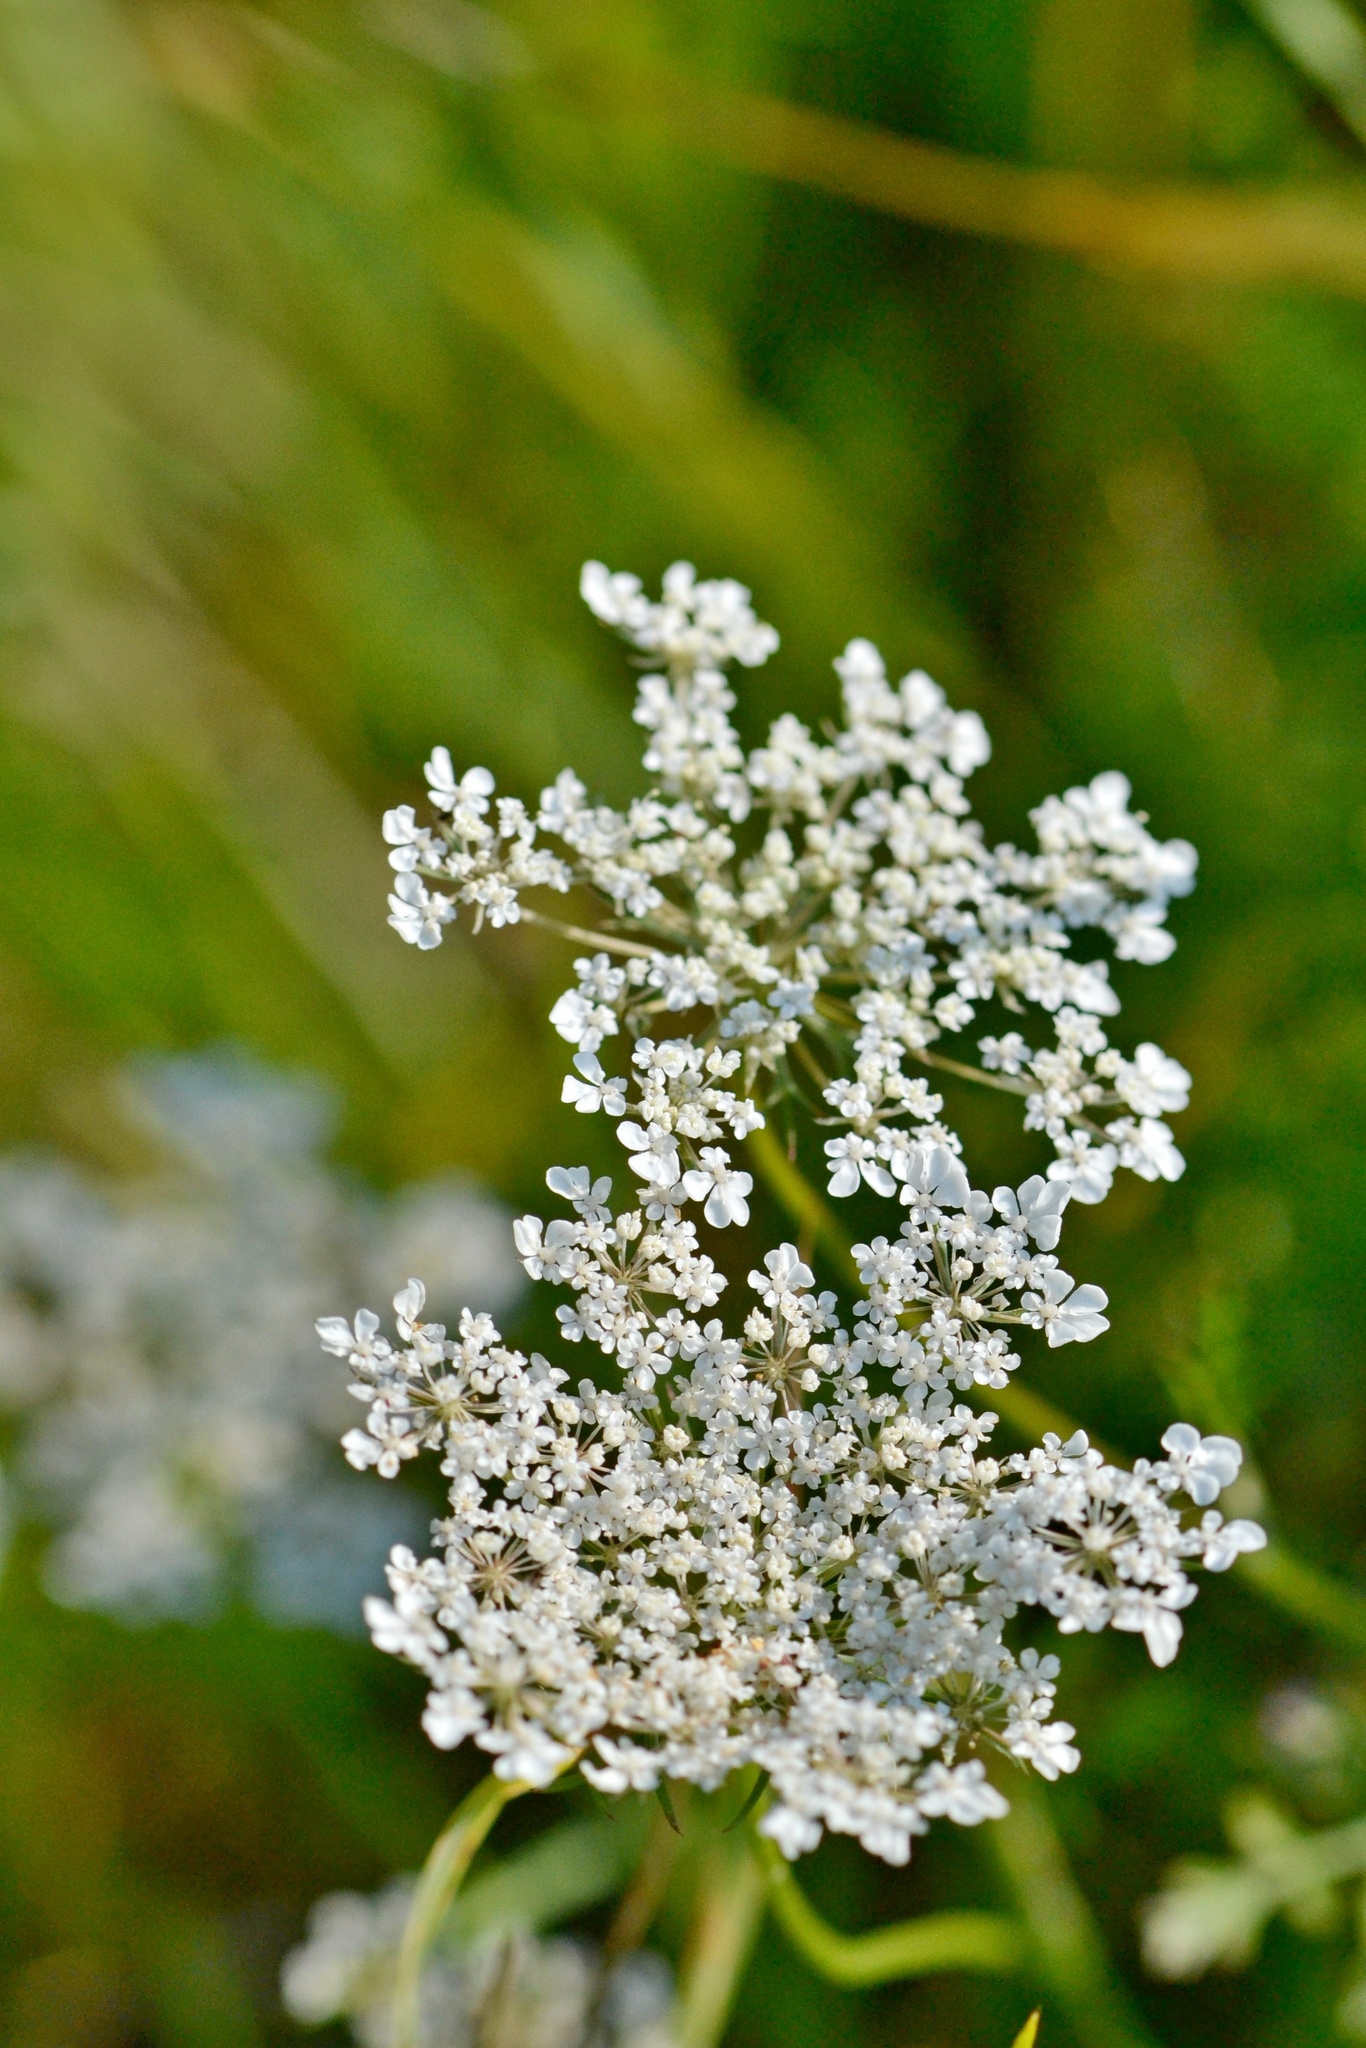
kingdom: Plantae
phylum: Tracheophyta
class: Magnoliopsida
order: Apiales
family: Apiaceae
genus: Daucus
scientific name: Daucus carota
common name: Wild carrot
